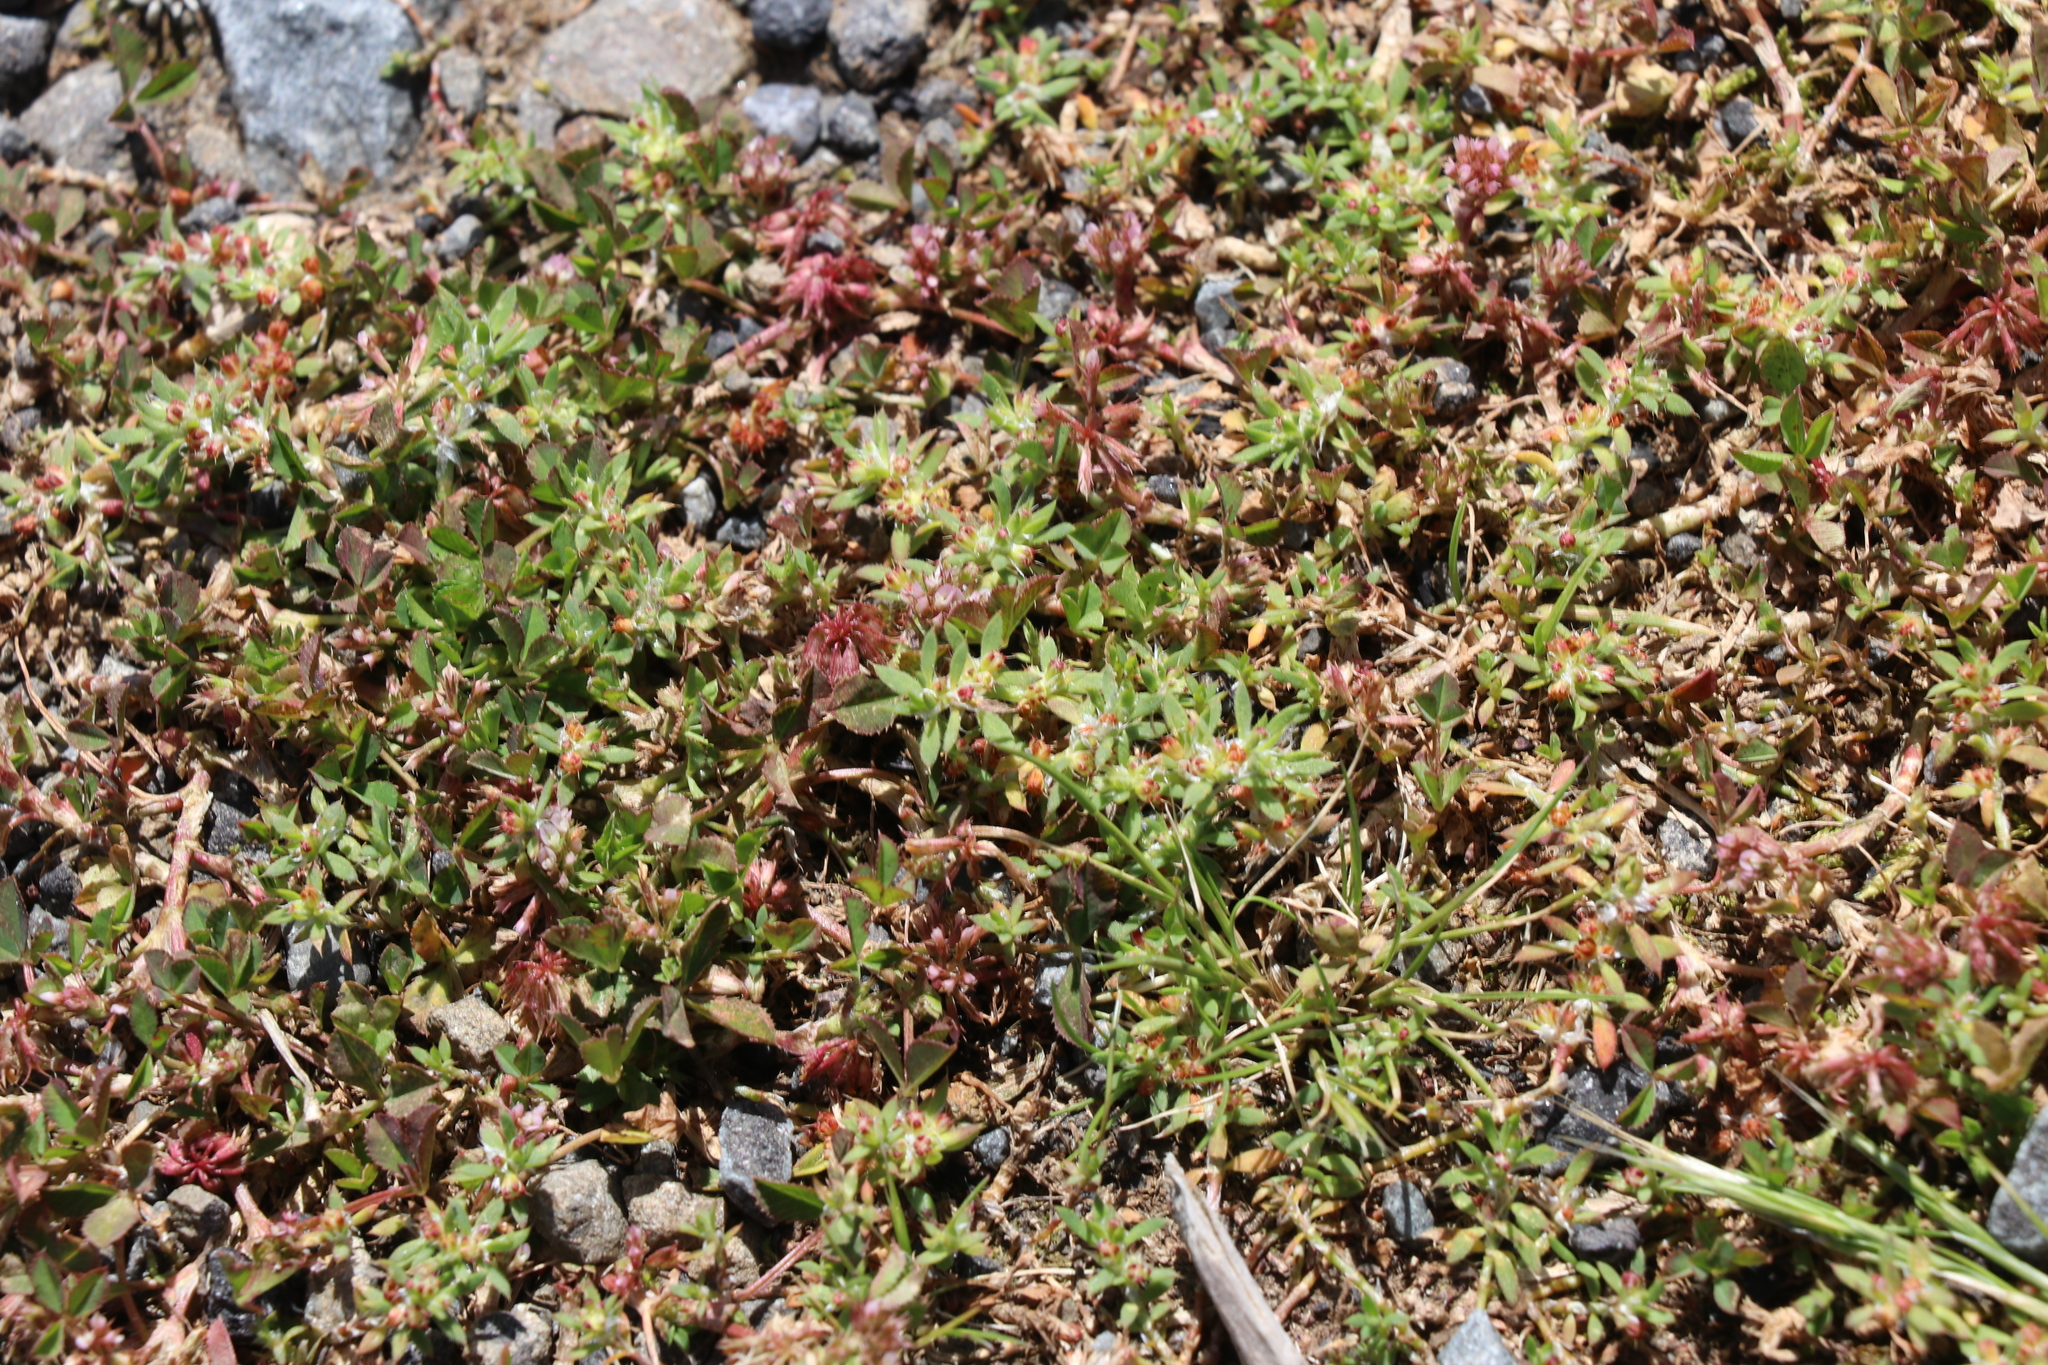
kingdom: Plantae
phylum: Tracheophyta
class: Magnoliopsida
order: Caryophyllales
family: Caryophyllaceae
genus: Paronychia
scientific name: Paronychia brasiliana
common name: Brazilian whitlow
